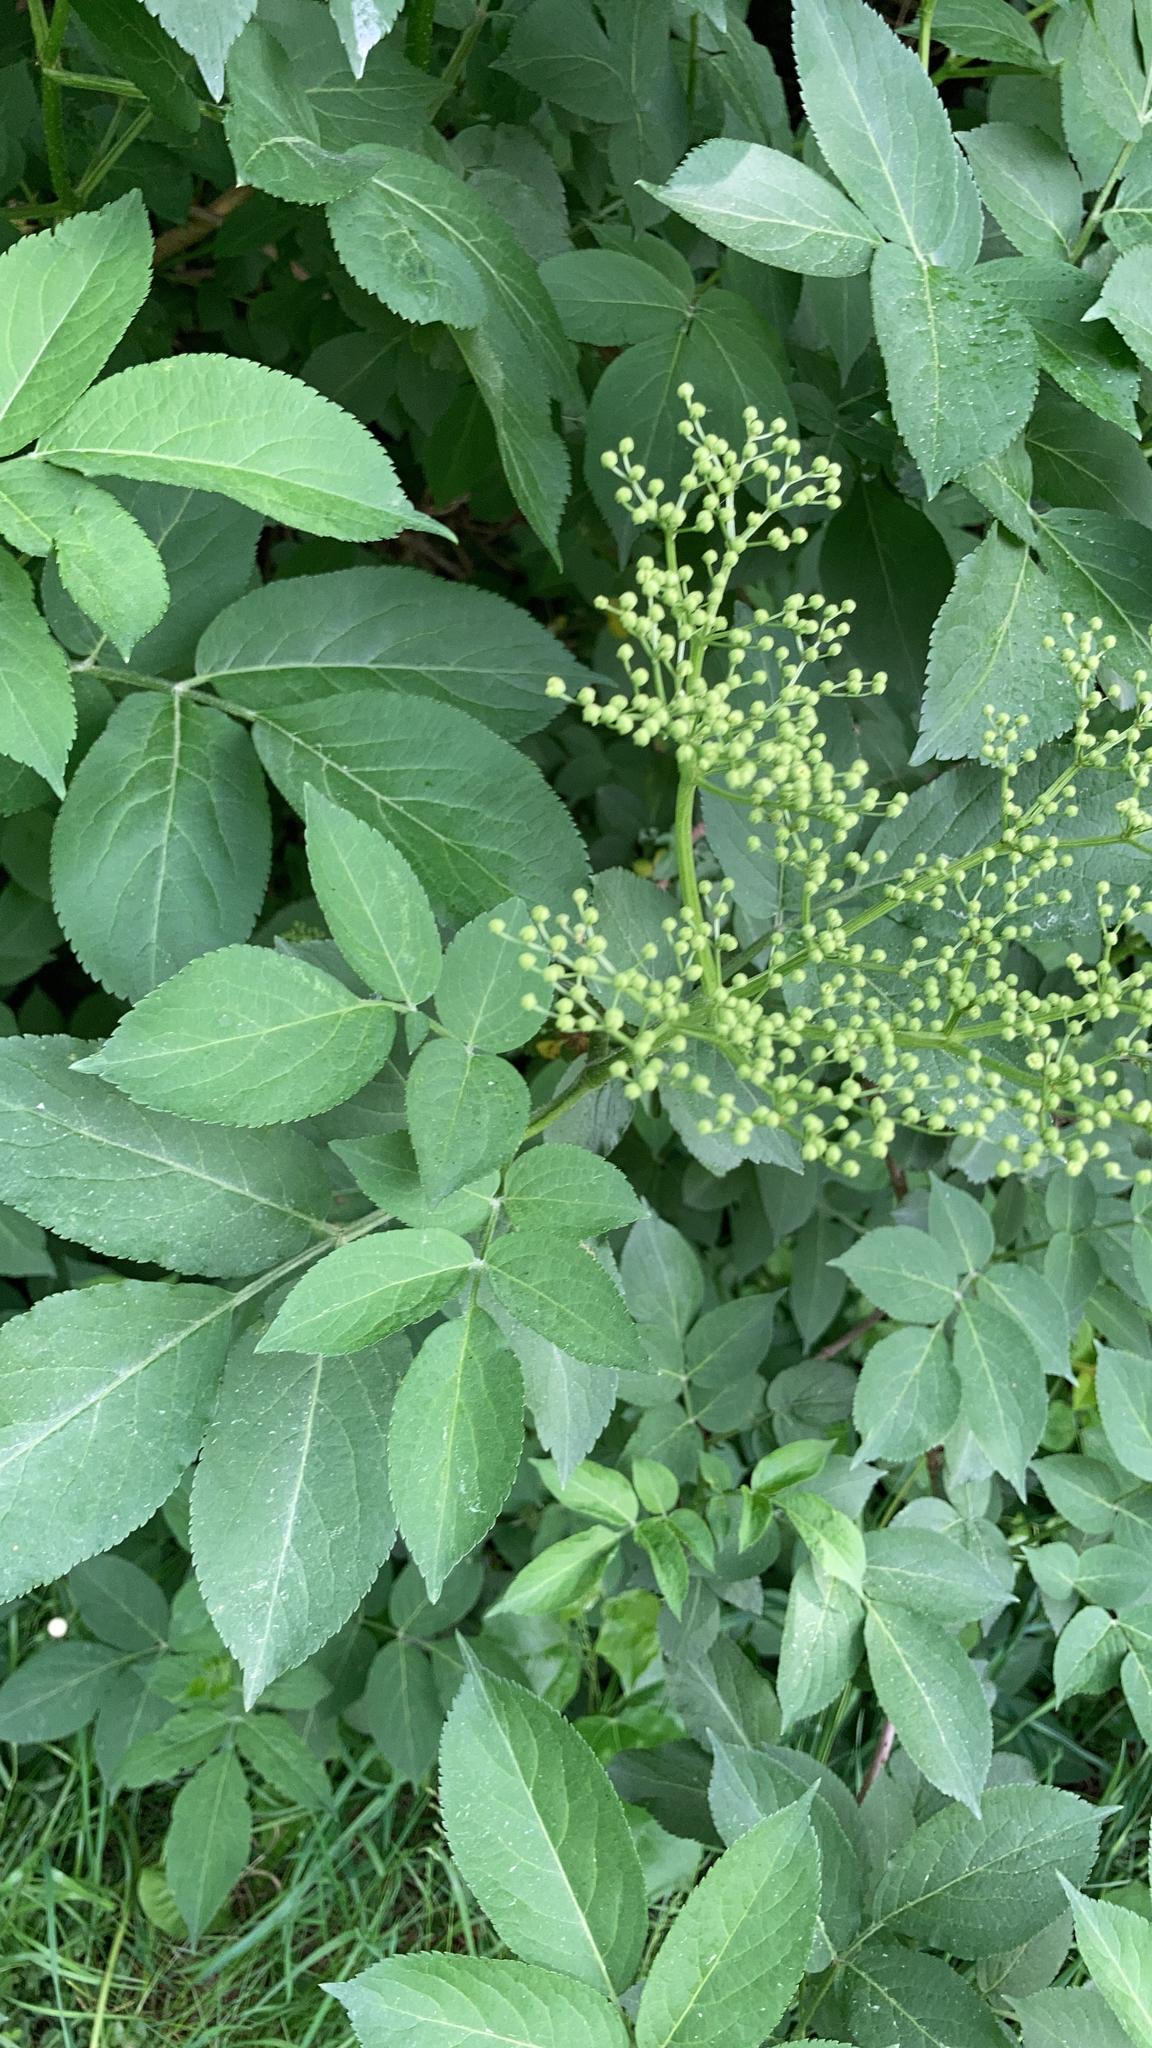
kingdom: Plantae
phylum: Tracheophyta
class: Magnoliopsida
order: Dipsacales
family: Viburnaceae
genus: Sambucus
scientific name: Sambucus nigra
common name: Elder
